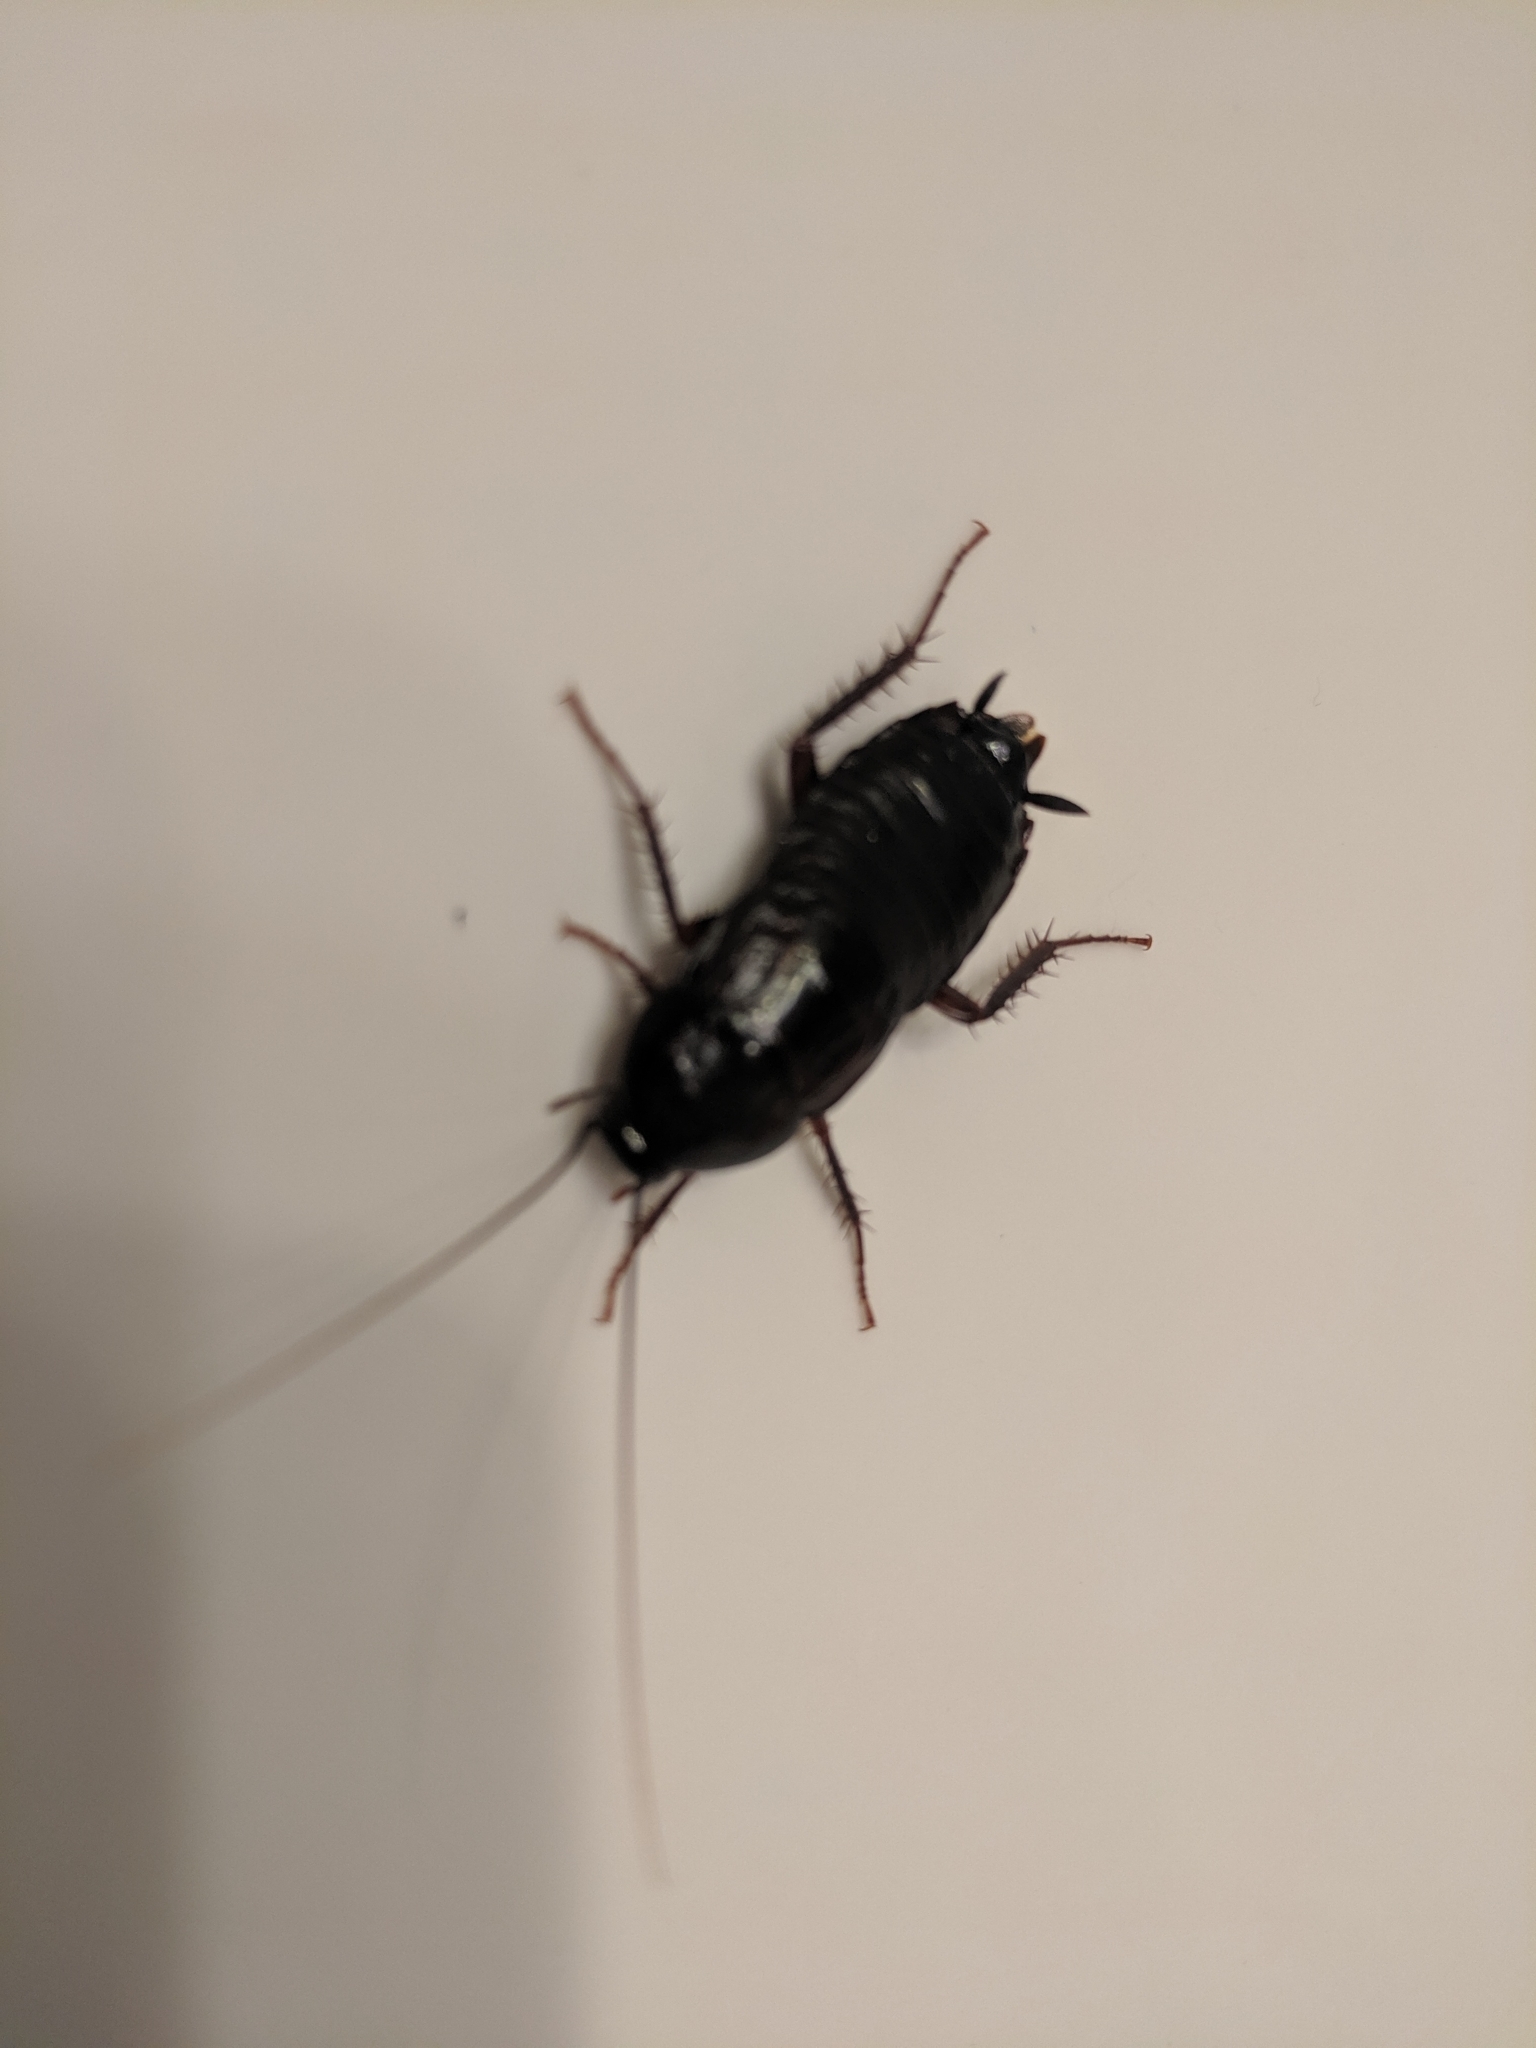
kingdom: Animalia
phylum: Arthropoda
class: Insecta
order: Blattodea
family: Blattidae
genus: Blatta
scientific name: Blatta orientalis
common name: Oriental cockroach
